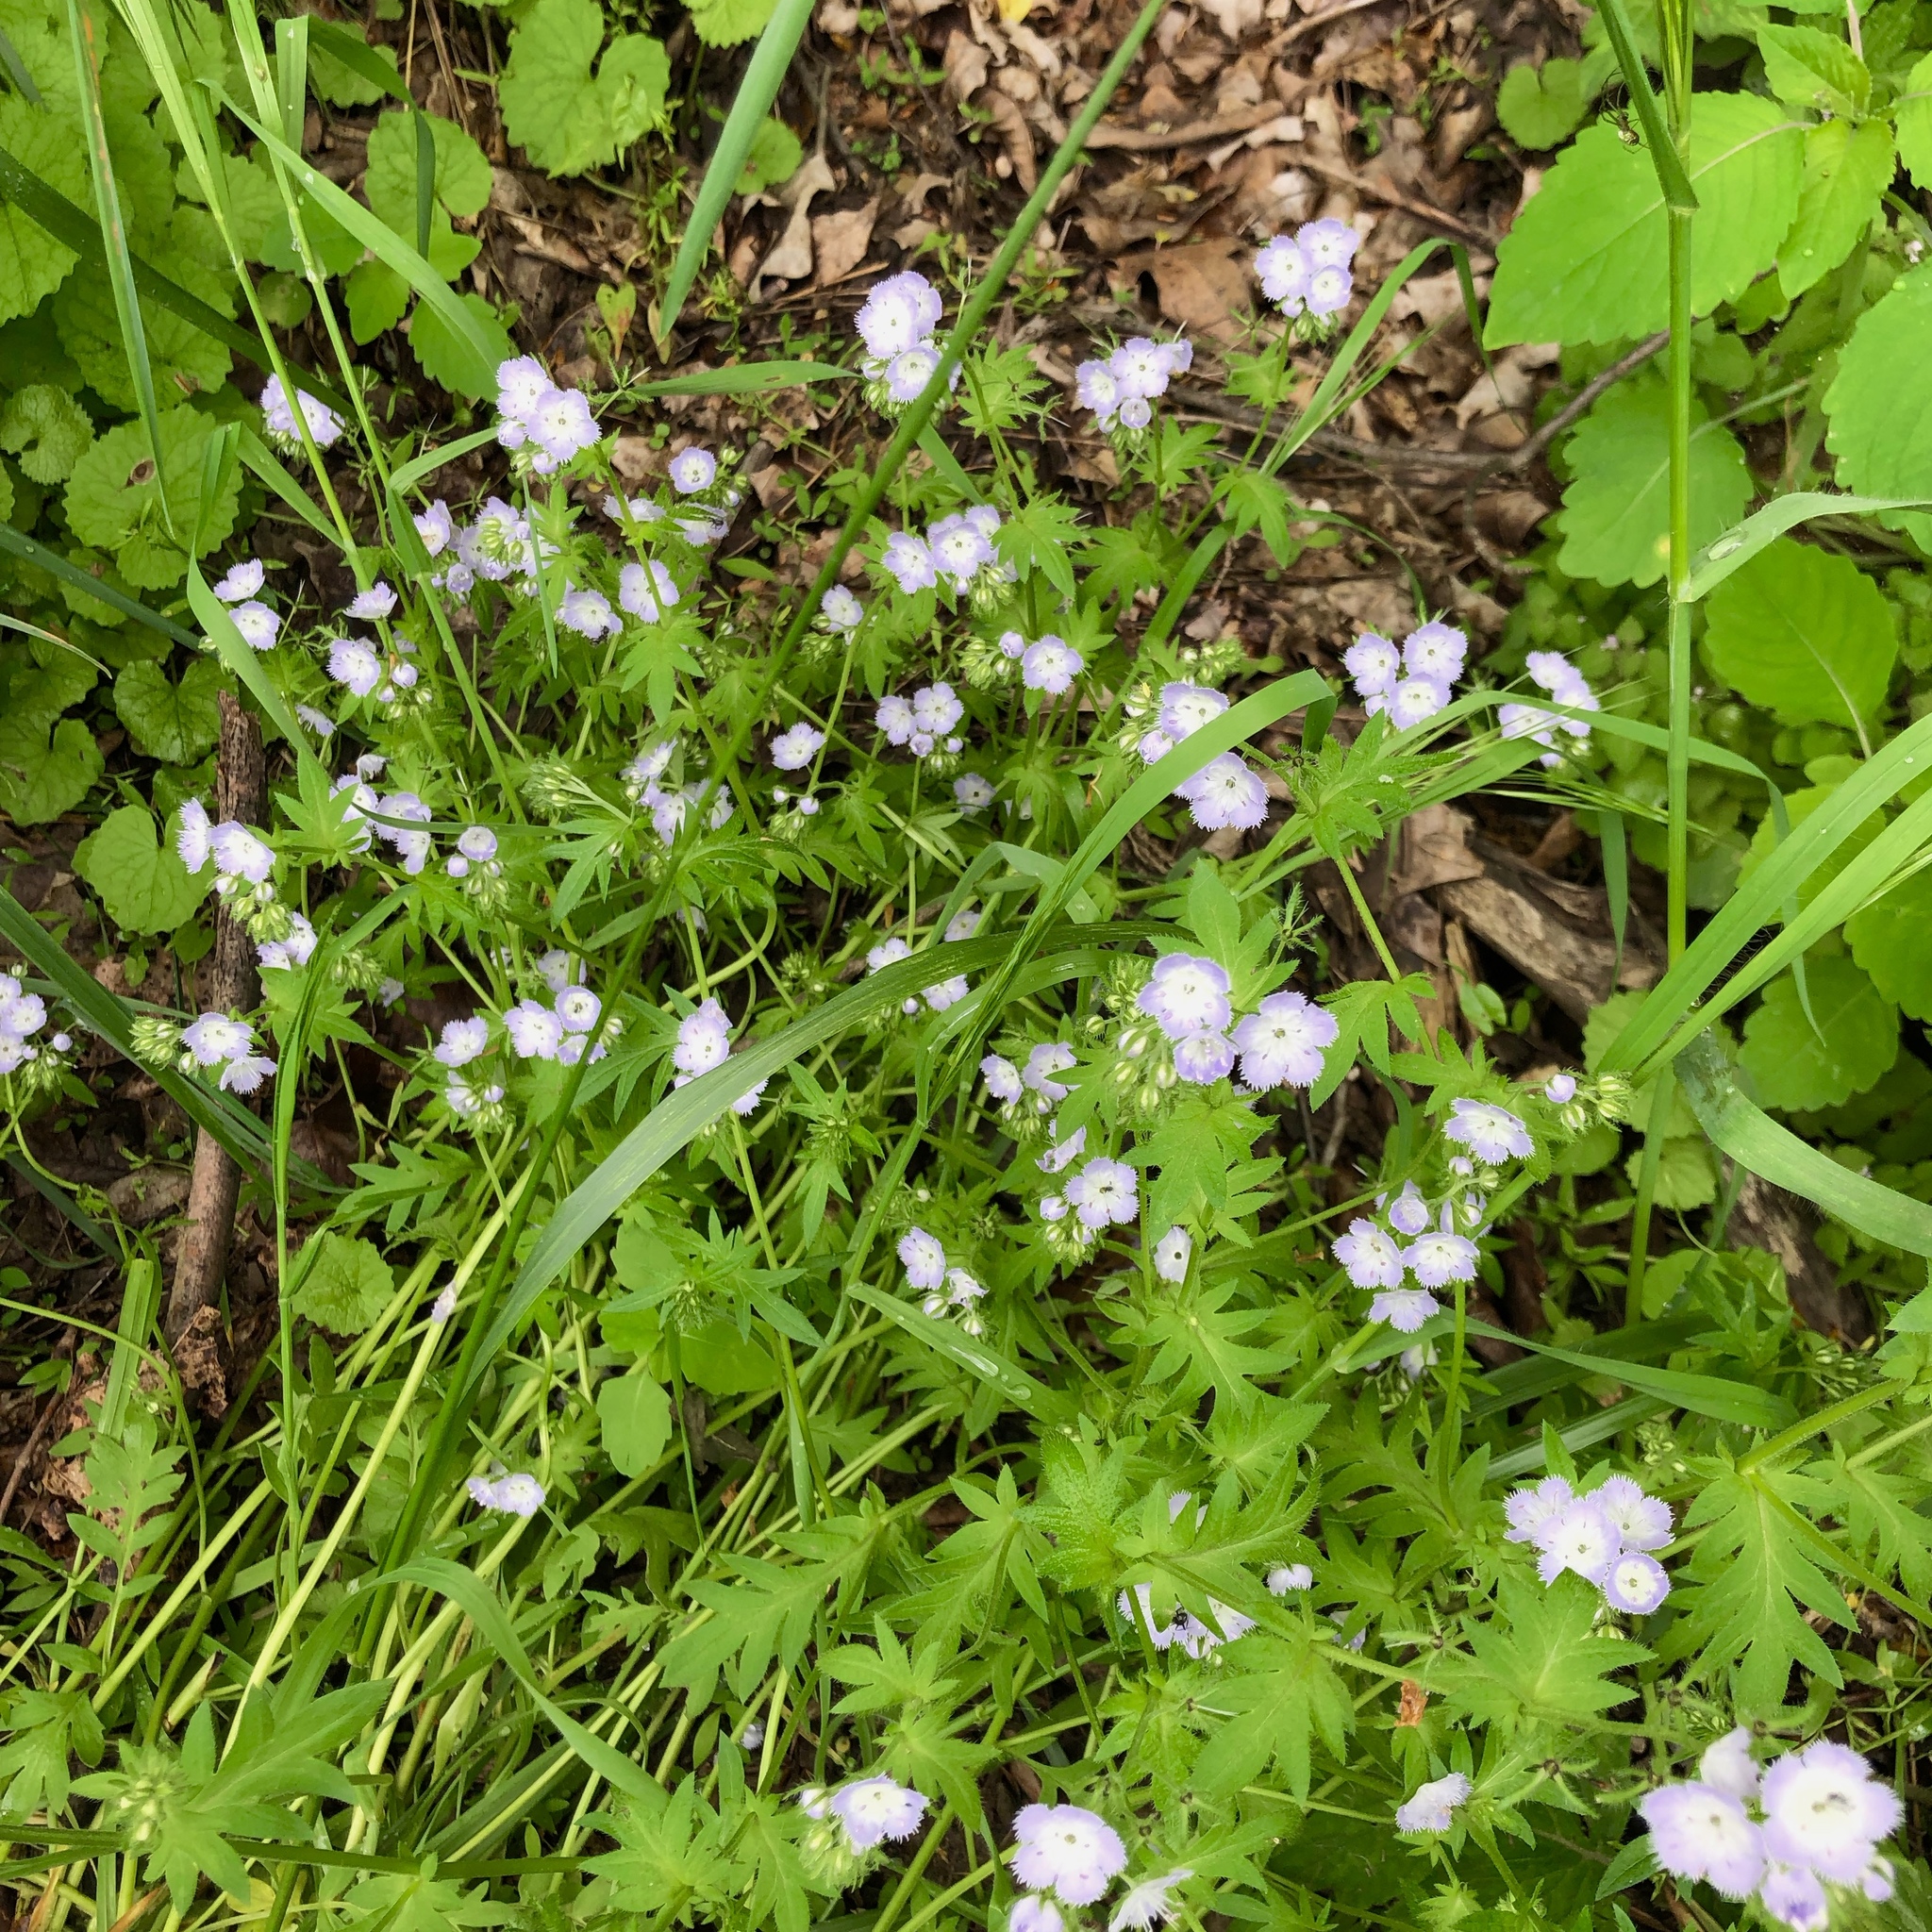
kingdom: Plantae
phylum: Tracheophyta
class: Magnoliopsida
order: Boraginales
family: Hydrophyllaceae
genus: Phacelia
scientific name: Phacelia purshii
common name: Miami-mist
